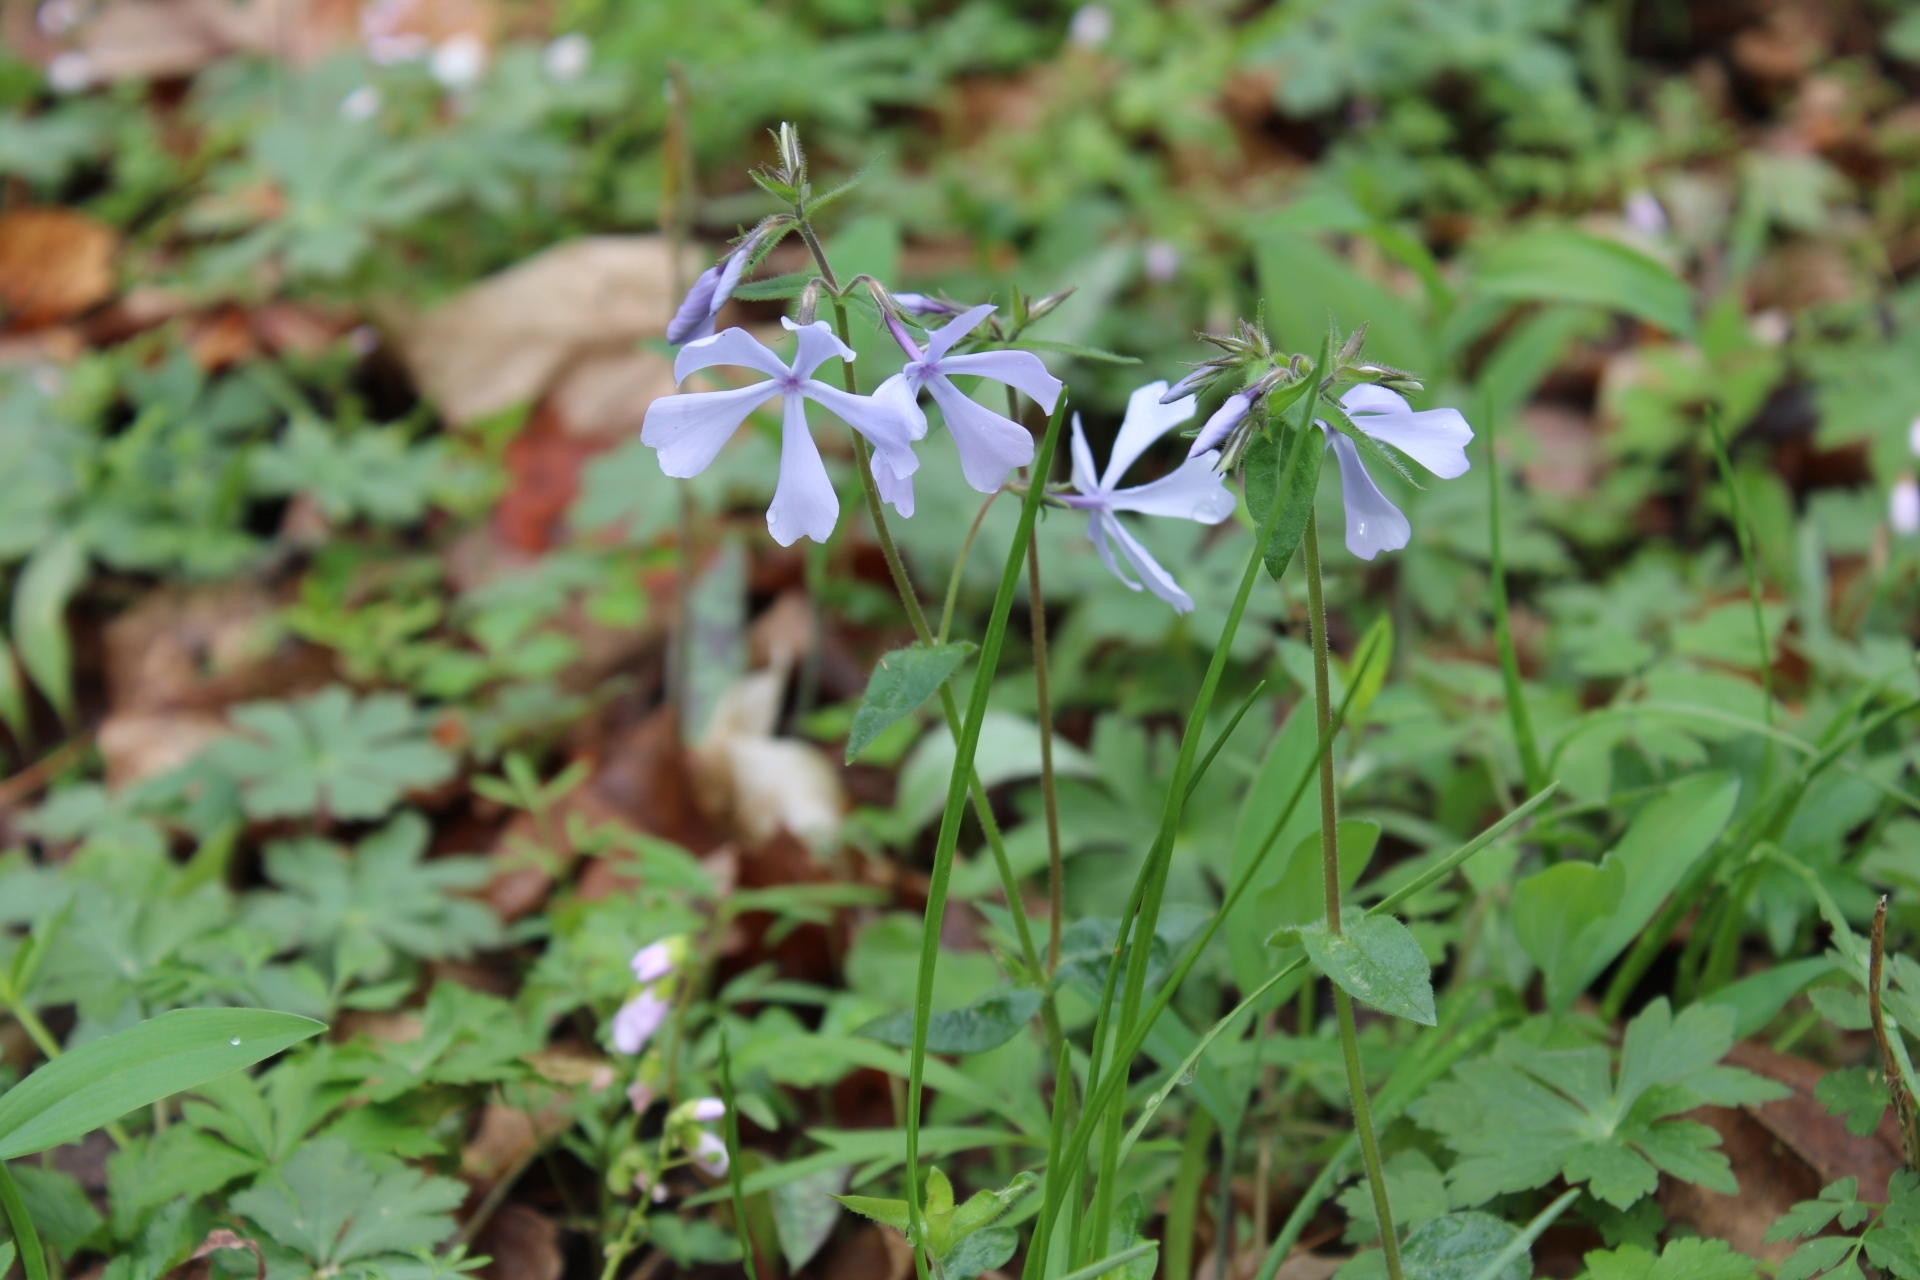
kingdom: Plantae
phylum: Tracheophyta
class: Magnoliopsida
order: Ericales
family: Polemoniaceae
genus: Phlox
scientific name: Phlox divaricata
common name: Blue phlox
